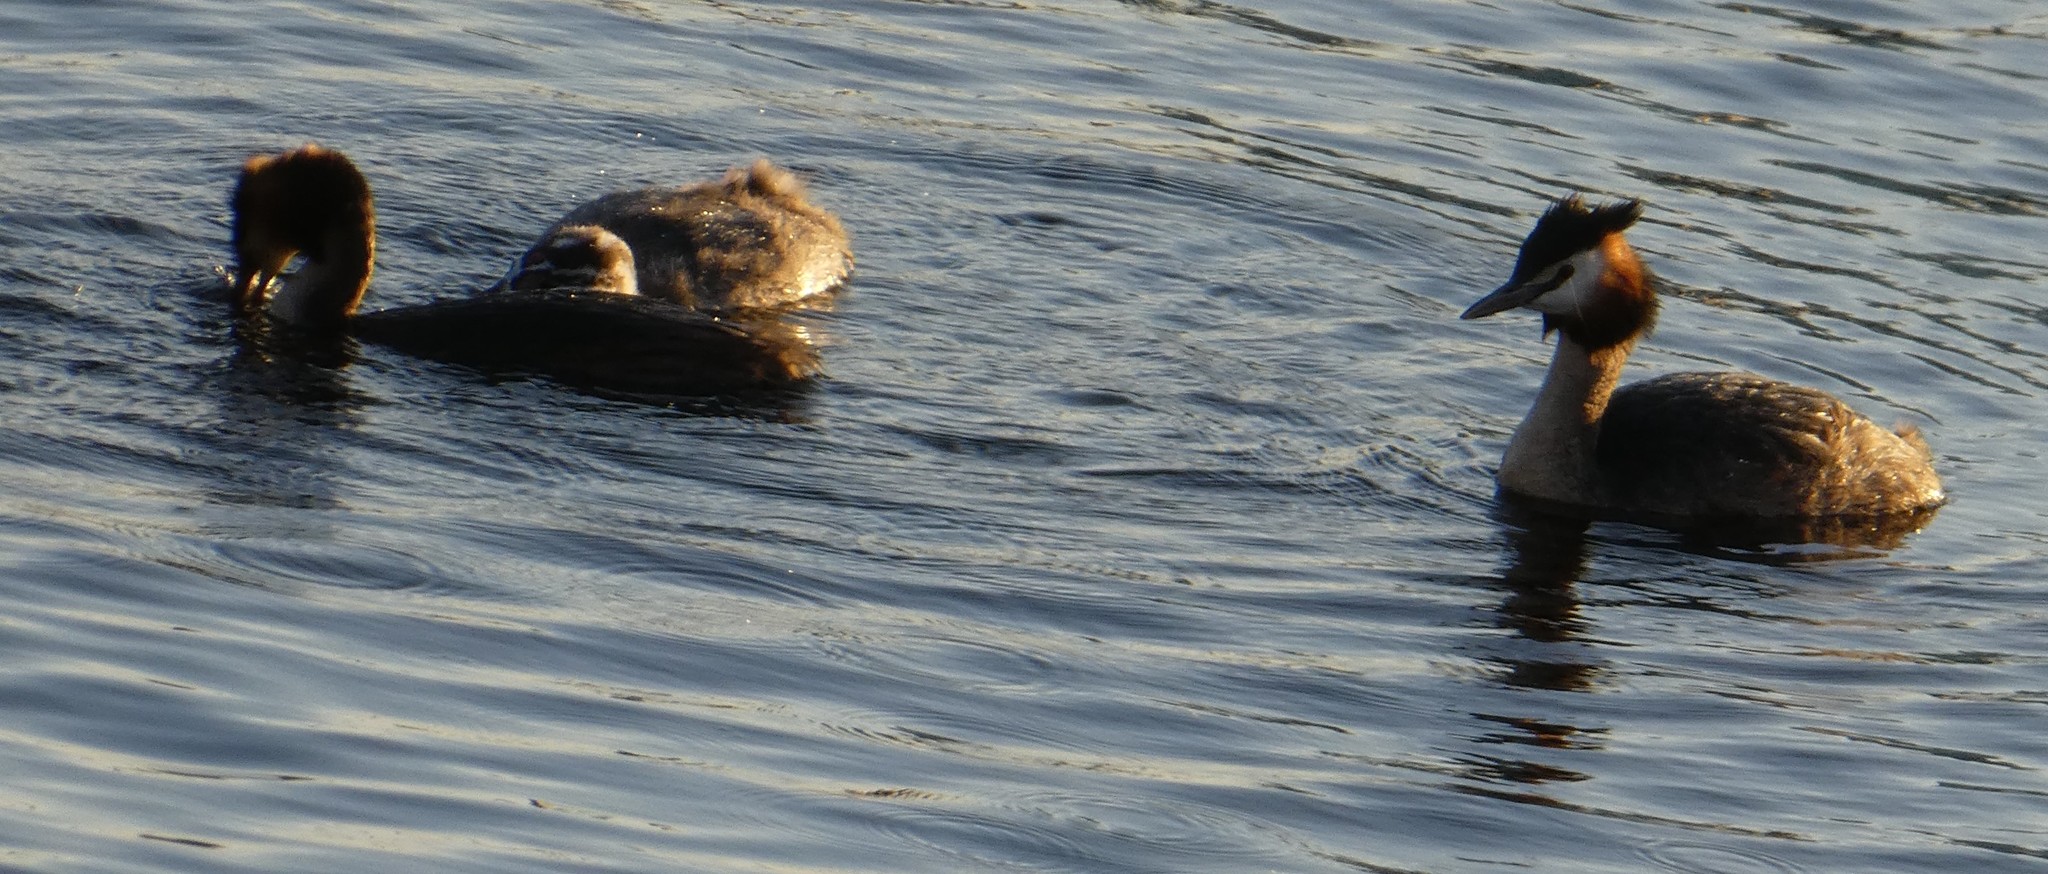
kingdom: Animalia
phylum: Chordata
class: Aves
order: Podicipediformes
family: Podicipedidae
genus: Podiceps
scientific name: Podiceps cristatus
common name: Great crested grebe
